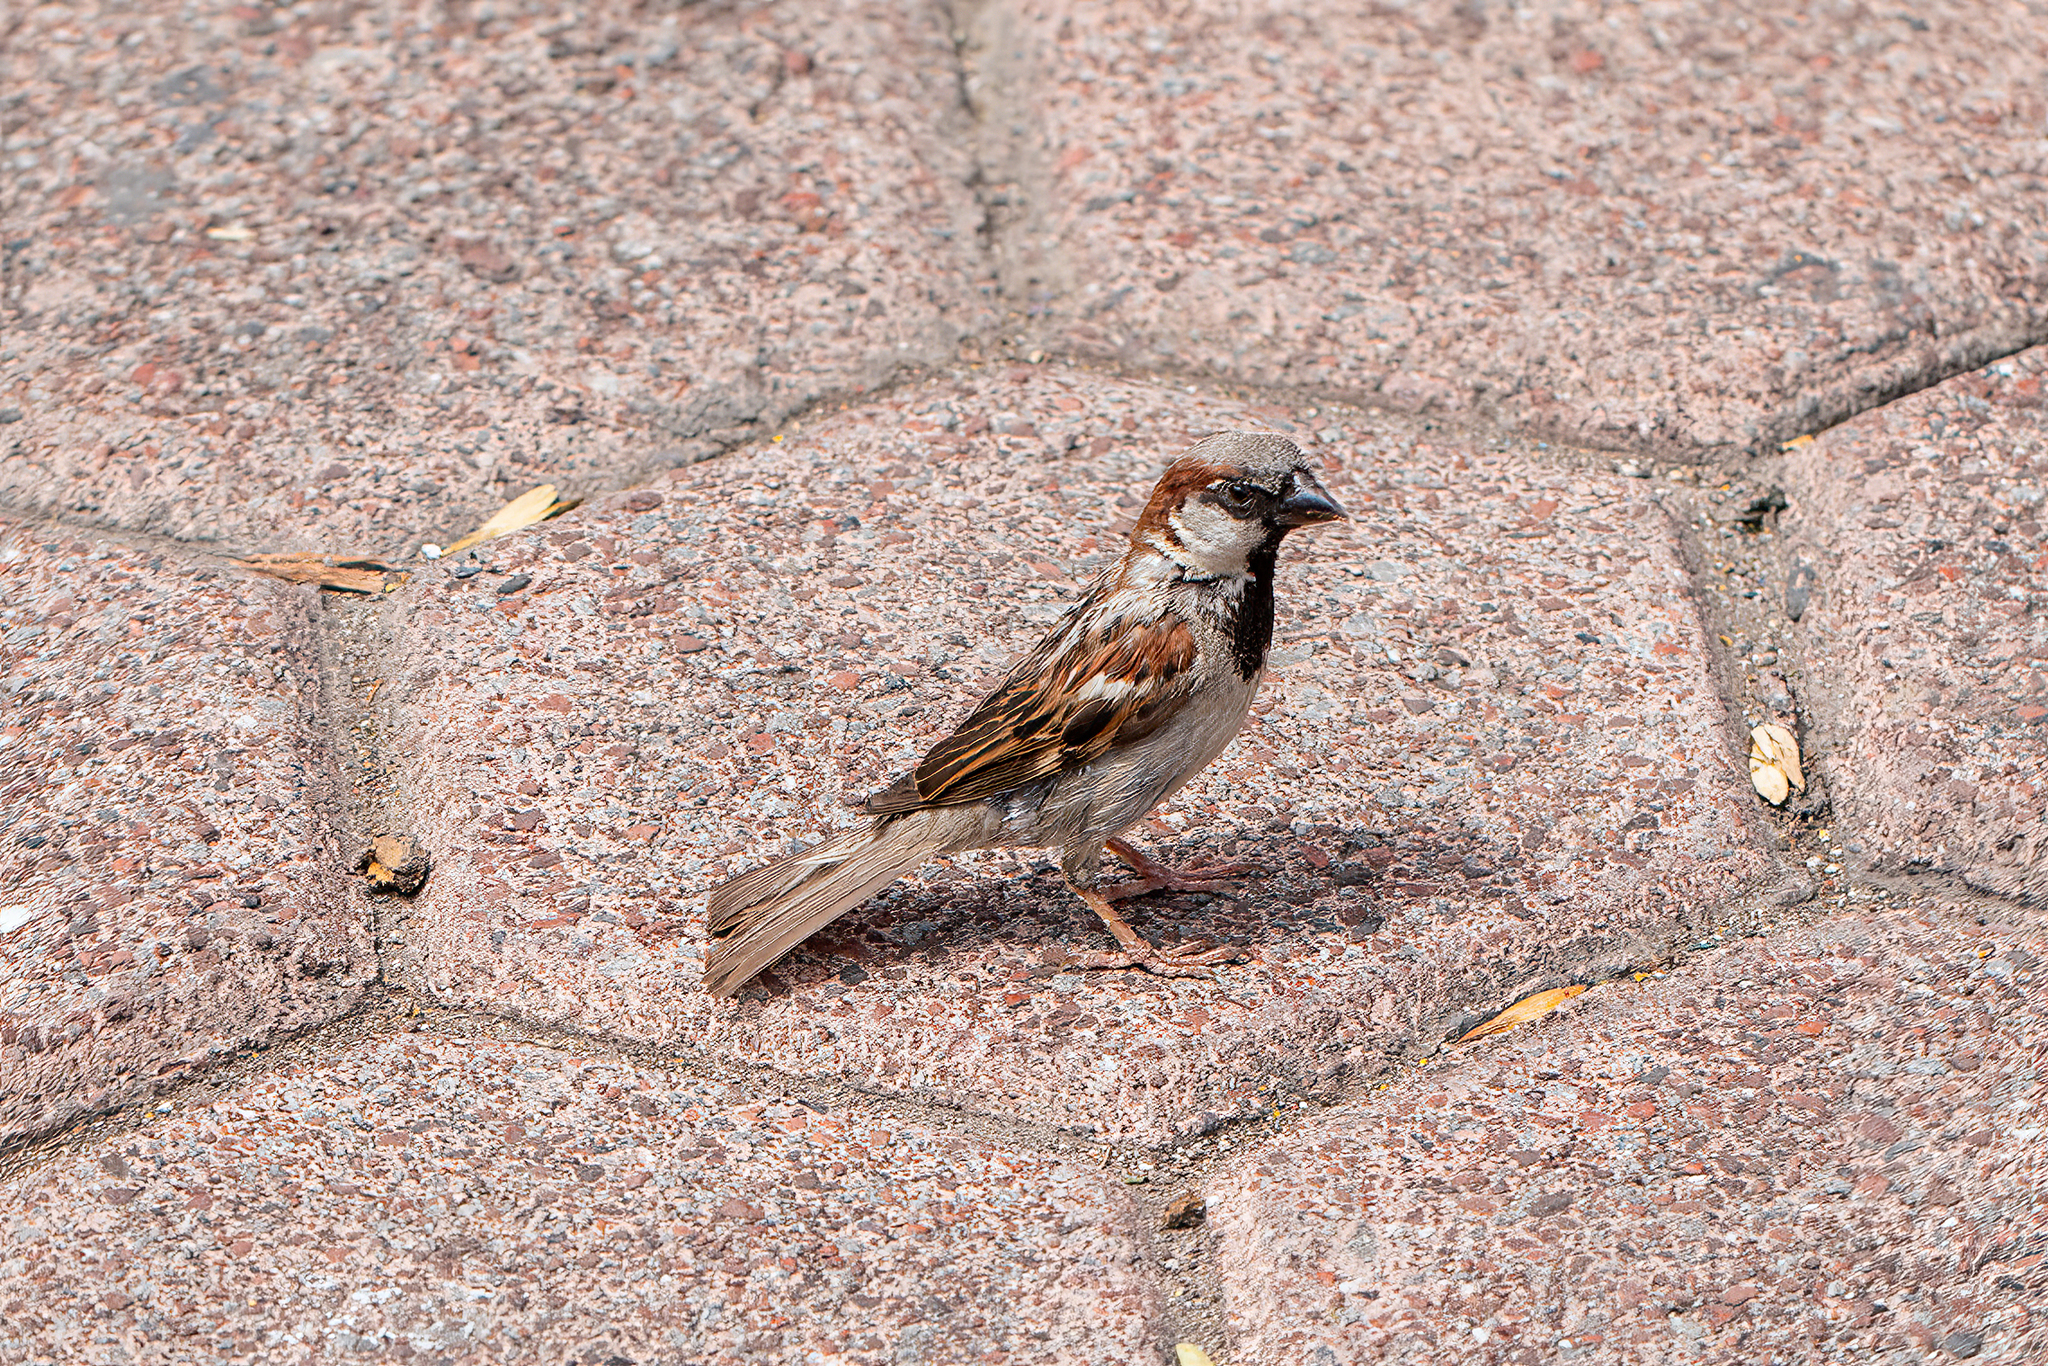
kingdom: Animalia
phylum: Chordata
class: Aves
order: Passeriformes
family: Passeridae
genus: Passer
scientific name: Passer domesticus
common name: House sparrow
